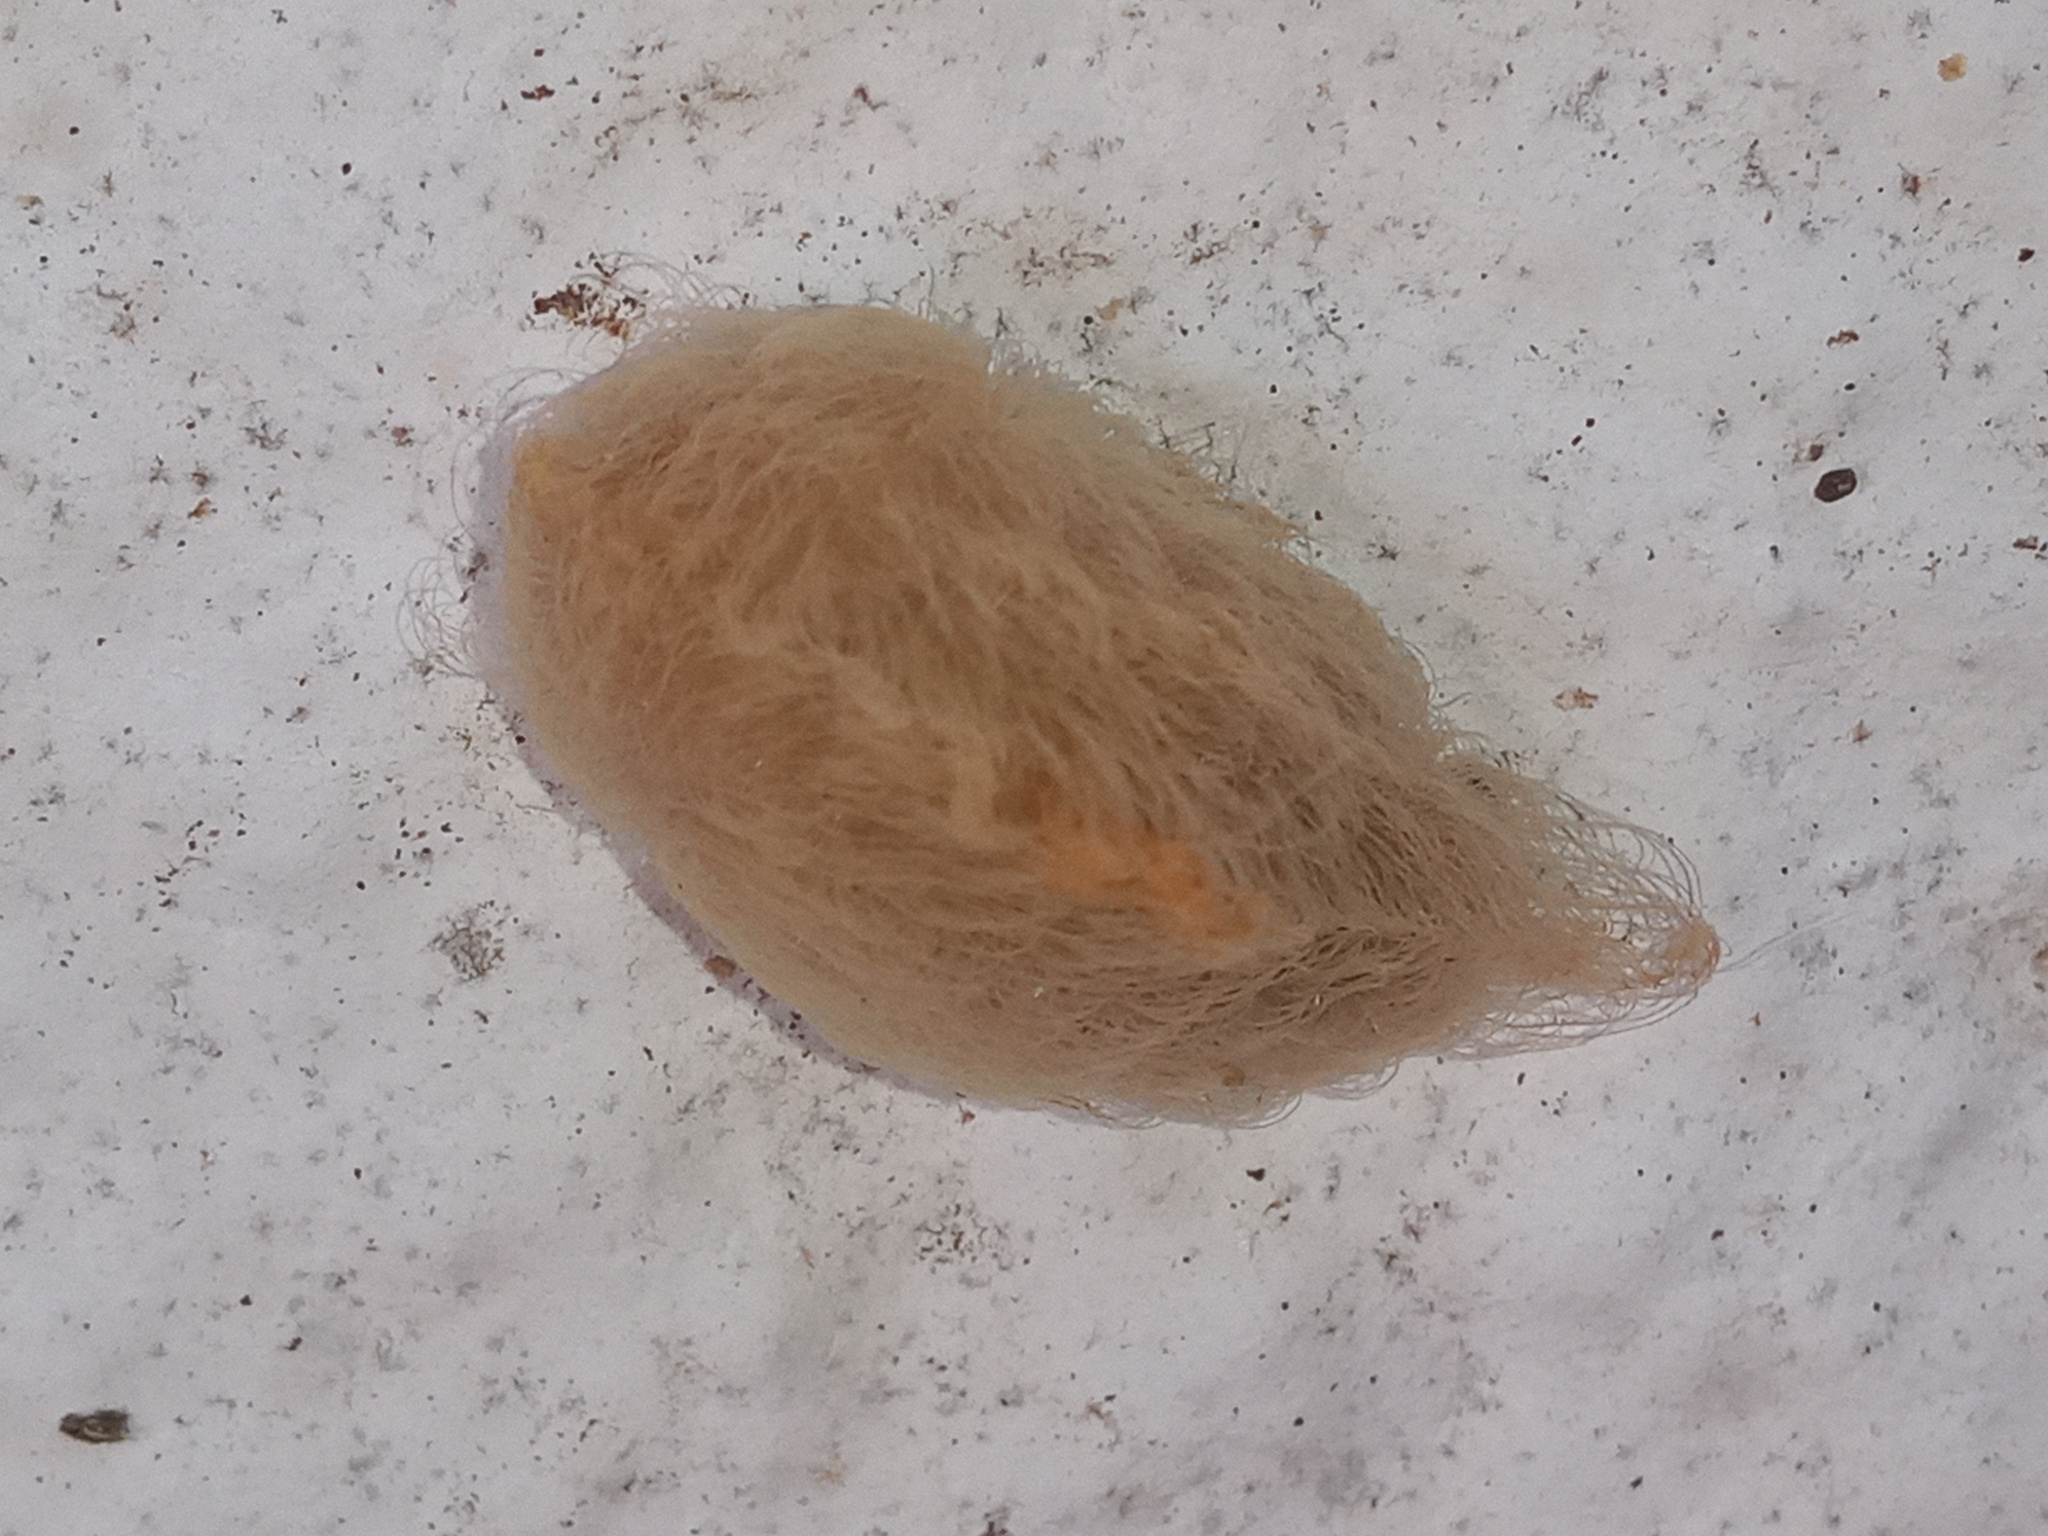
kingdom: Animalia
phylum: Arthropoda
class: Insecta
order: Lepidoptera
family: Megalopygidae
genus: Megalopyge
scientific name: Megalopyge opercularis
